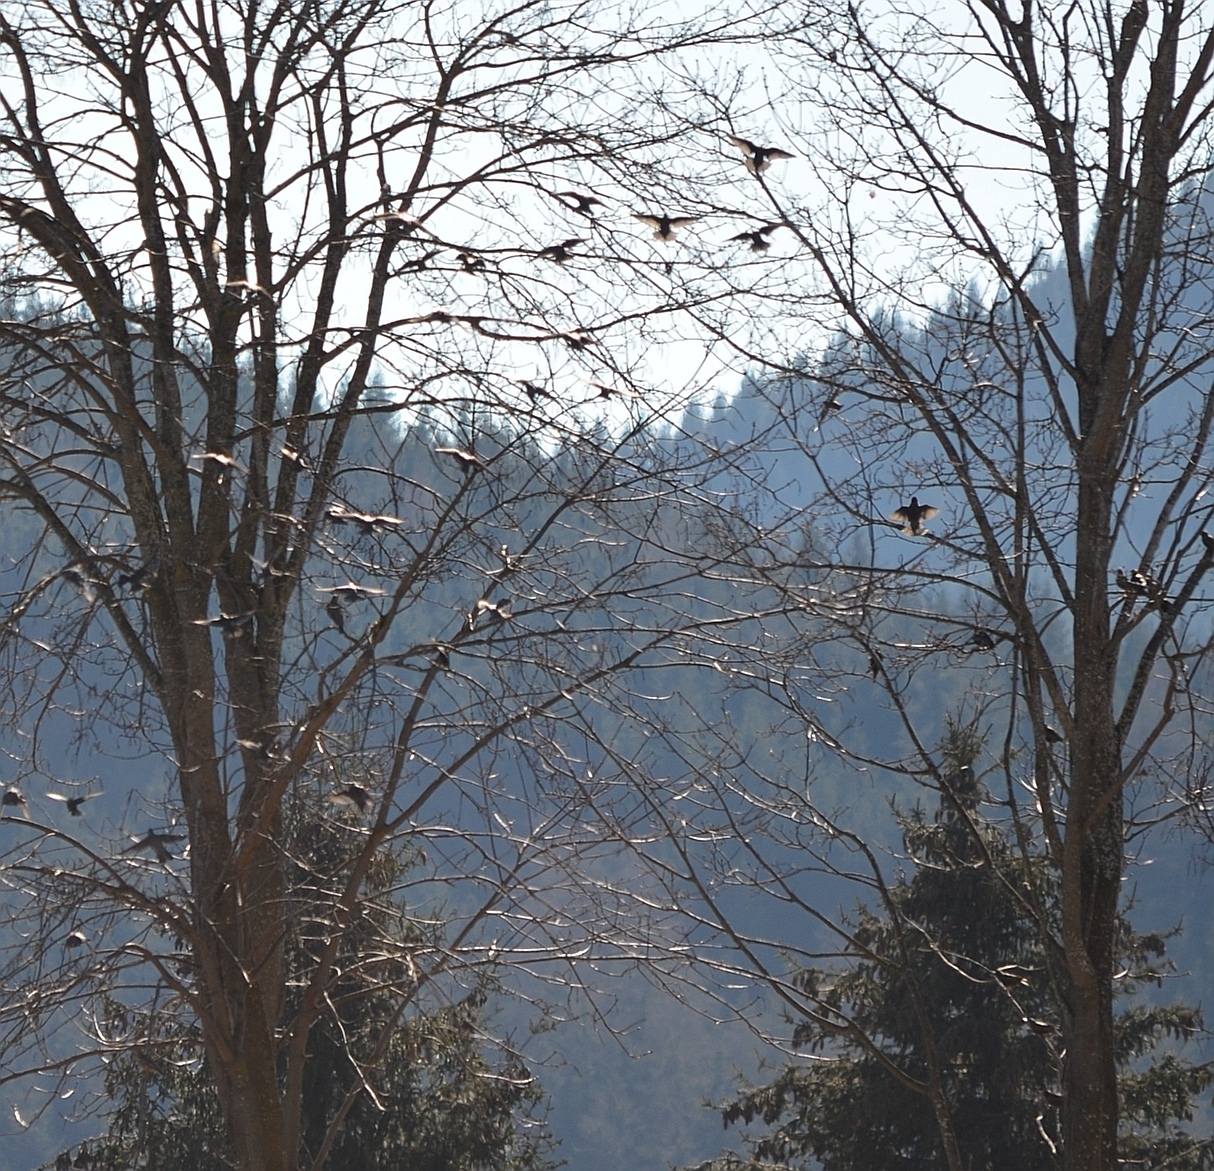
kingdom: Animalia
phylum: Chordata
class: Aves
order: Passeriformes
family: Sturnidae
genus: Sturnus
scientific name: Sturnus vulgaris
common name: Common starling
